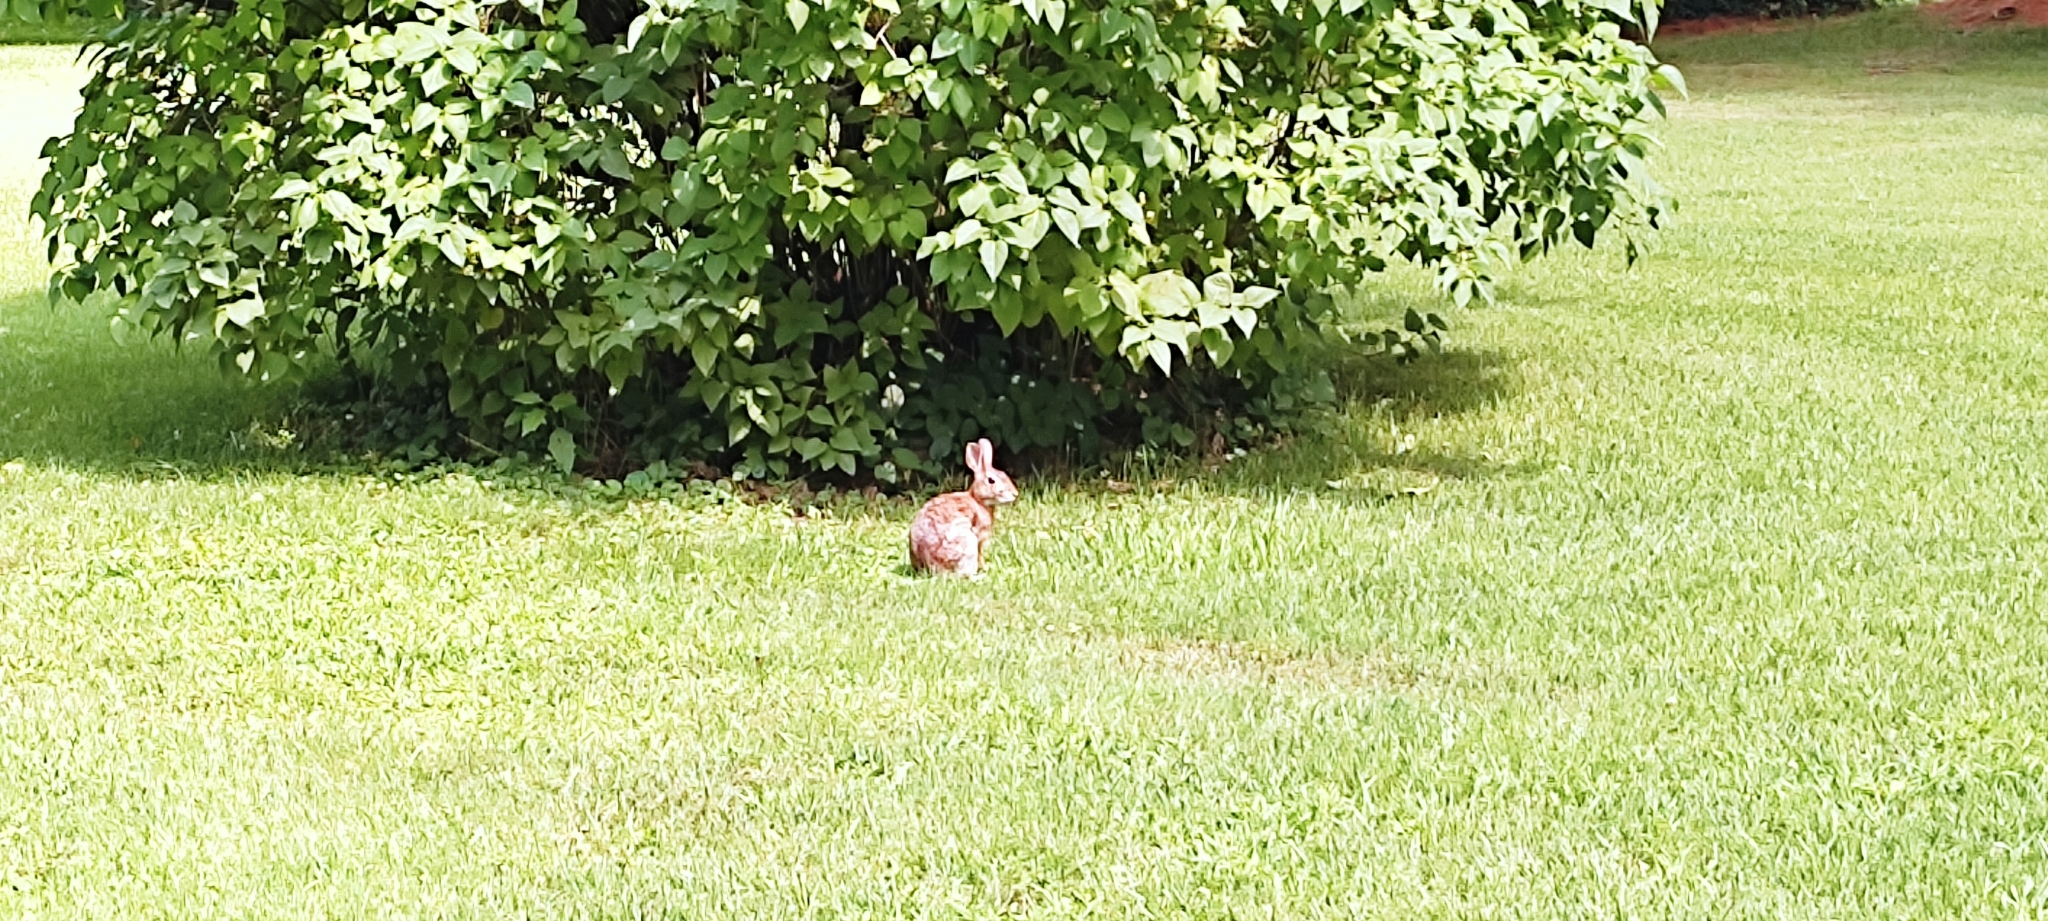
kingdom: Animalia
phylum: Chordata
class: Mammalia
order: Lagomorpha
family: Leporidae
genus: Sylvilagus
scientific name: Sylvilagus floridanus
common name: Eastern cottontail
